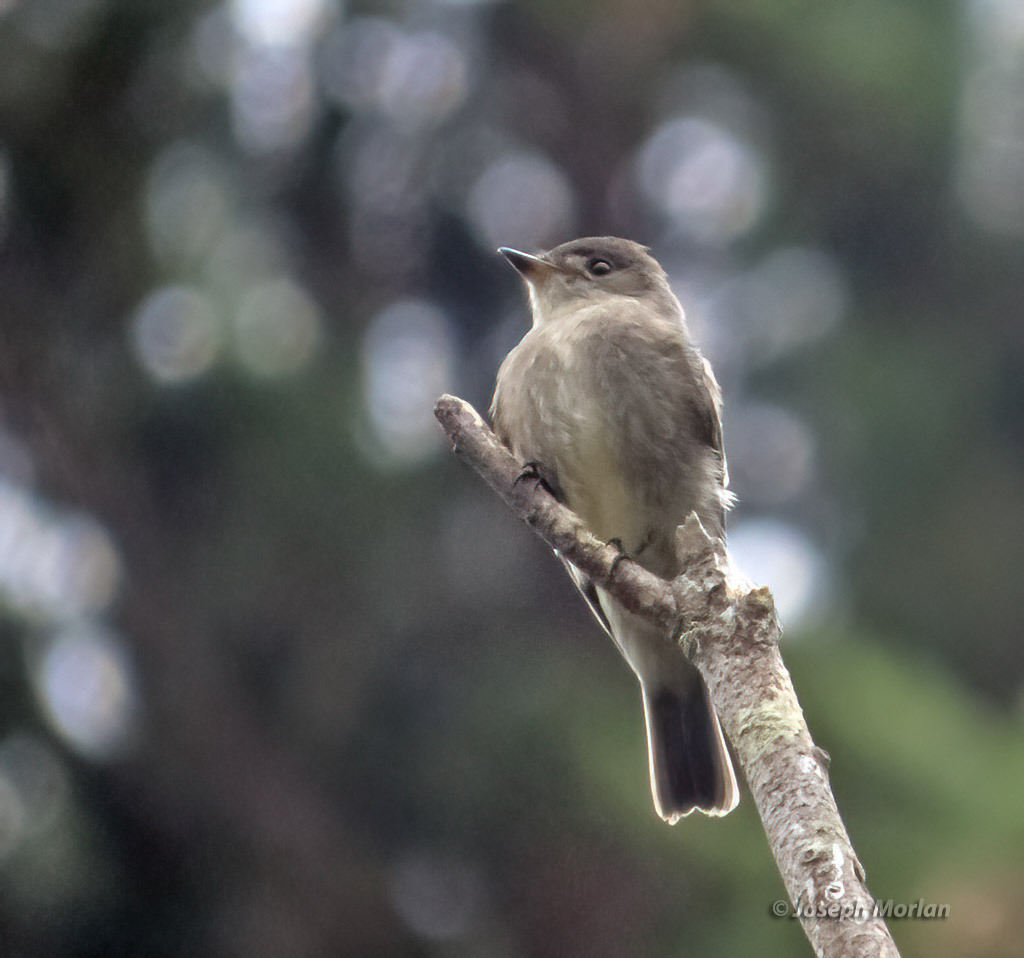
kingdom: Animalia
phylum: Chordata
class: Aves
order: Passeriformes
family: Tyrannidae
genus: Contopus
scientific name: Contopus sordidulus
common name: Western wood-pewee
